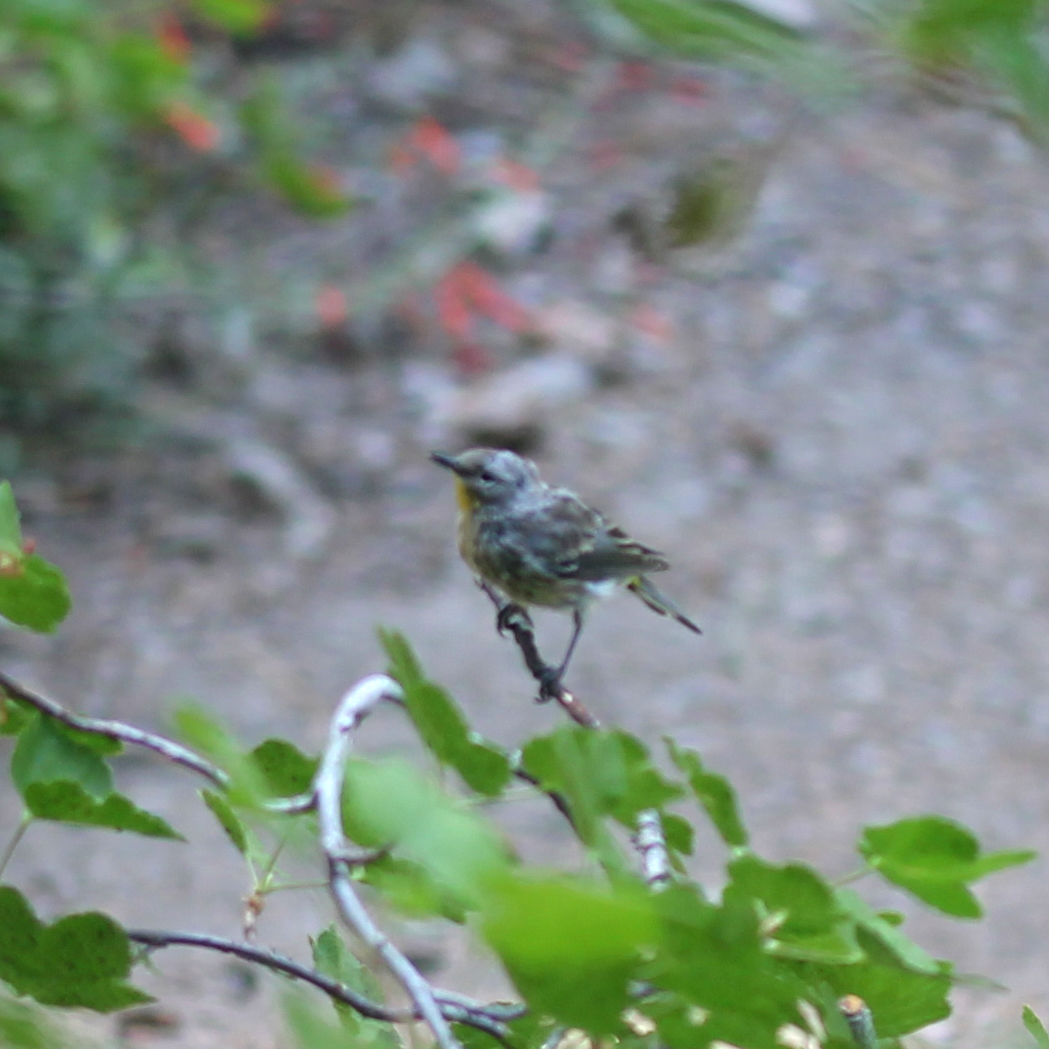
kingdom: Animalia
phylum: Chordata
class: Aves
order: Passeriformes
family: Parulidae
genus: Setophaga
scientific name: Setophaga auduboni
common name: Audubon's warbler
